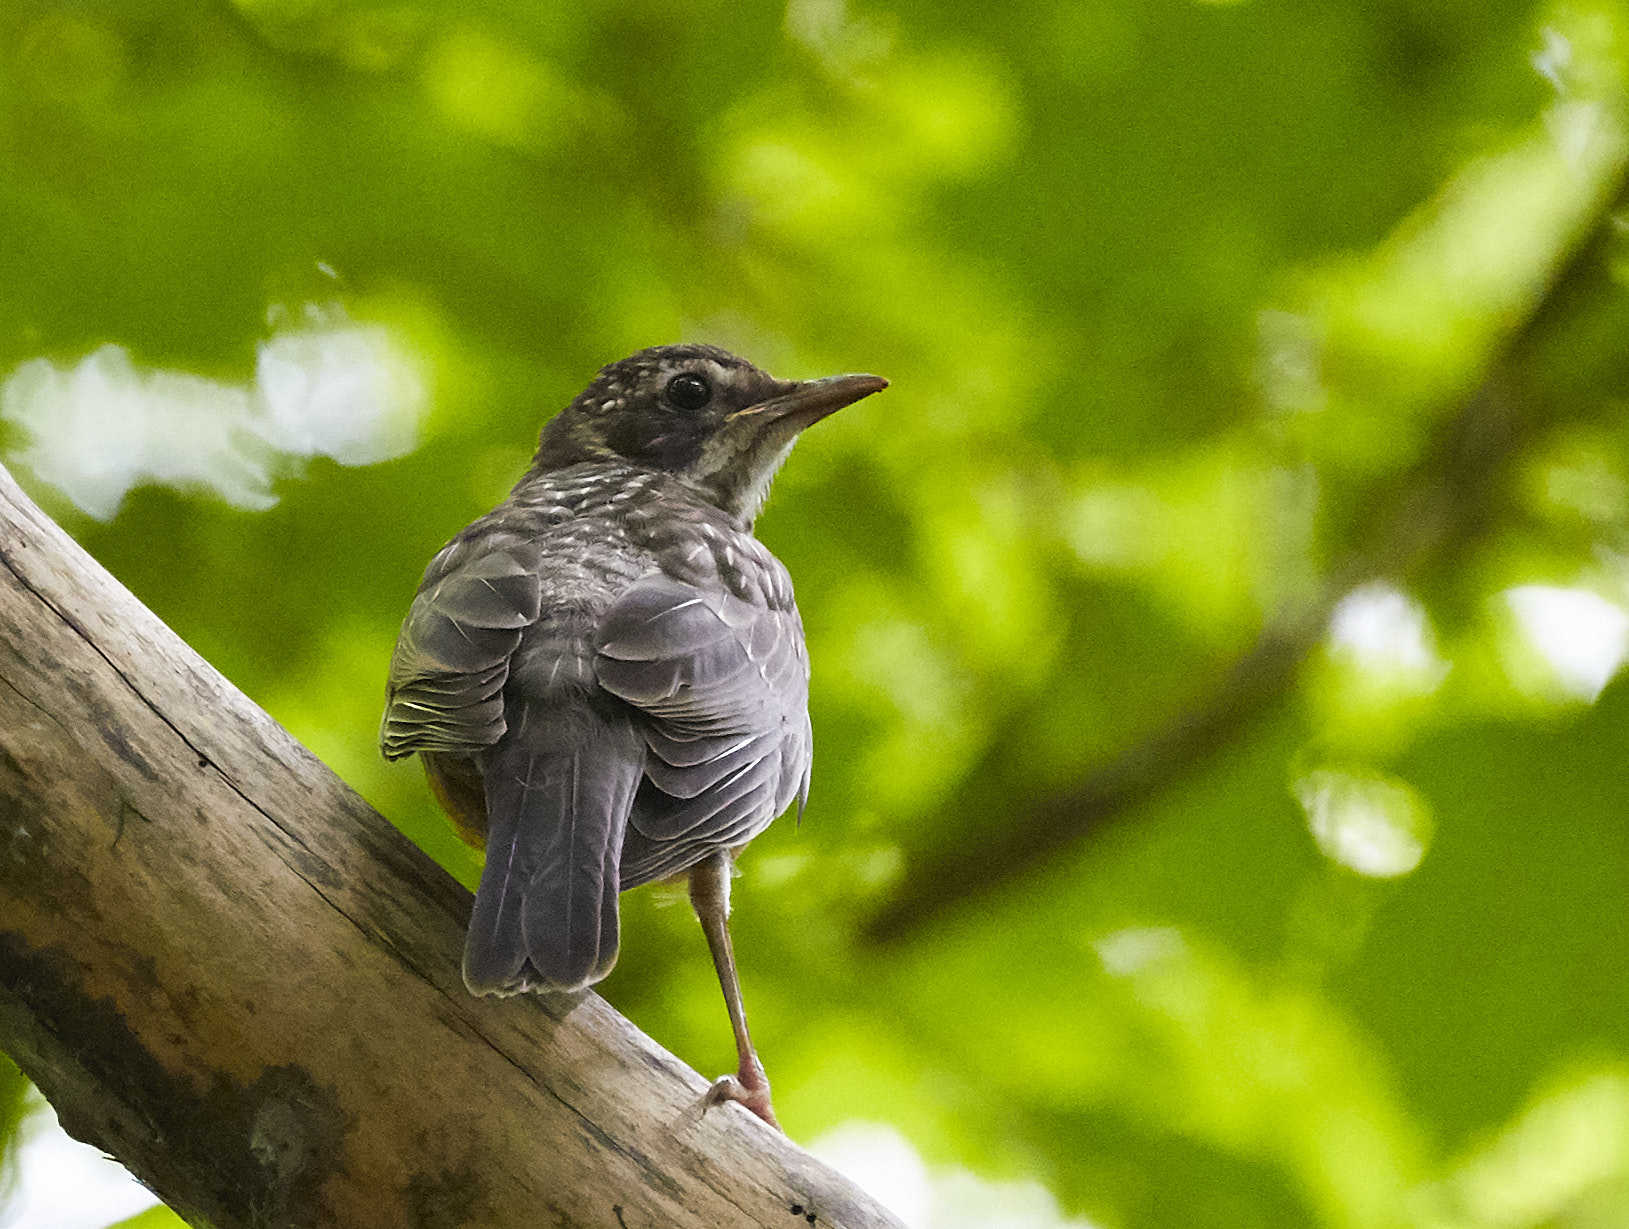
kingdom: Animalia
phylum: Chordata
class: Aves
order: Passeriformes
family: Turdidae
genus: Turdus
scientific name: Turdus migratorius
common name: American robin
